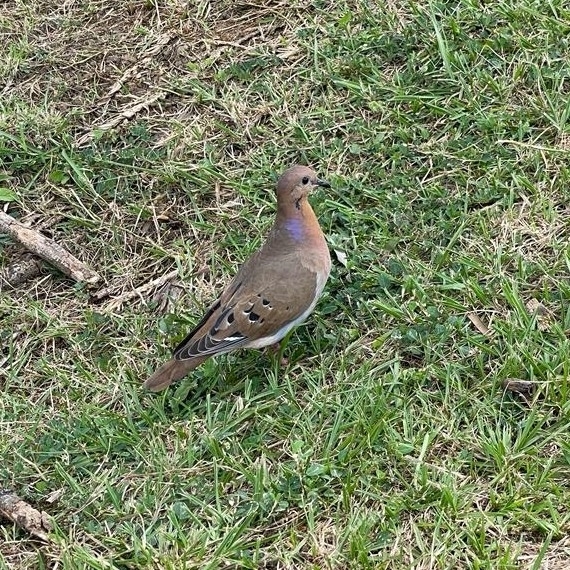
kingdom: Animalia
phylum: Chordata
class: Aves
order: Columbiformes
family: Columbidae
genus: Zenaida
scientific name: Zenaida aurita
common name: Zenaida dove
